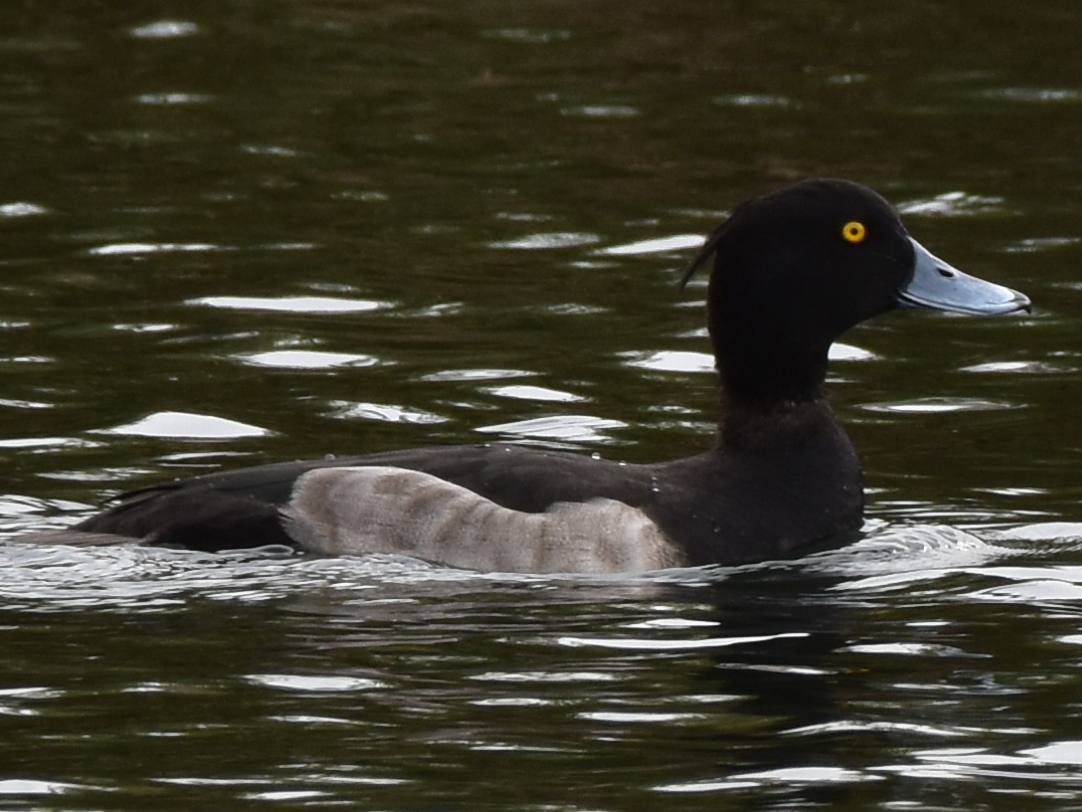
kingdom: Animalia
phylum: Chordata
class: Aves
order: Anseriformes
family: Anatidae
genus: Aythya
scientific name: Aythya fuligula
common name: Tufted duck
